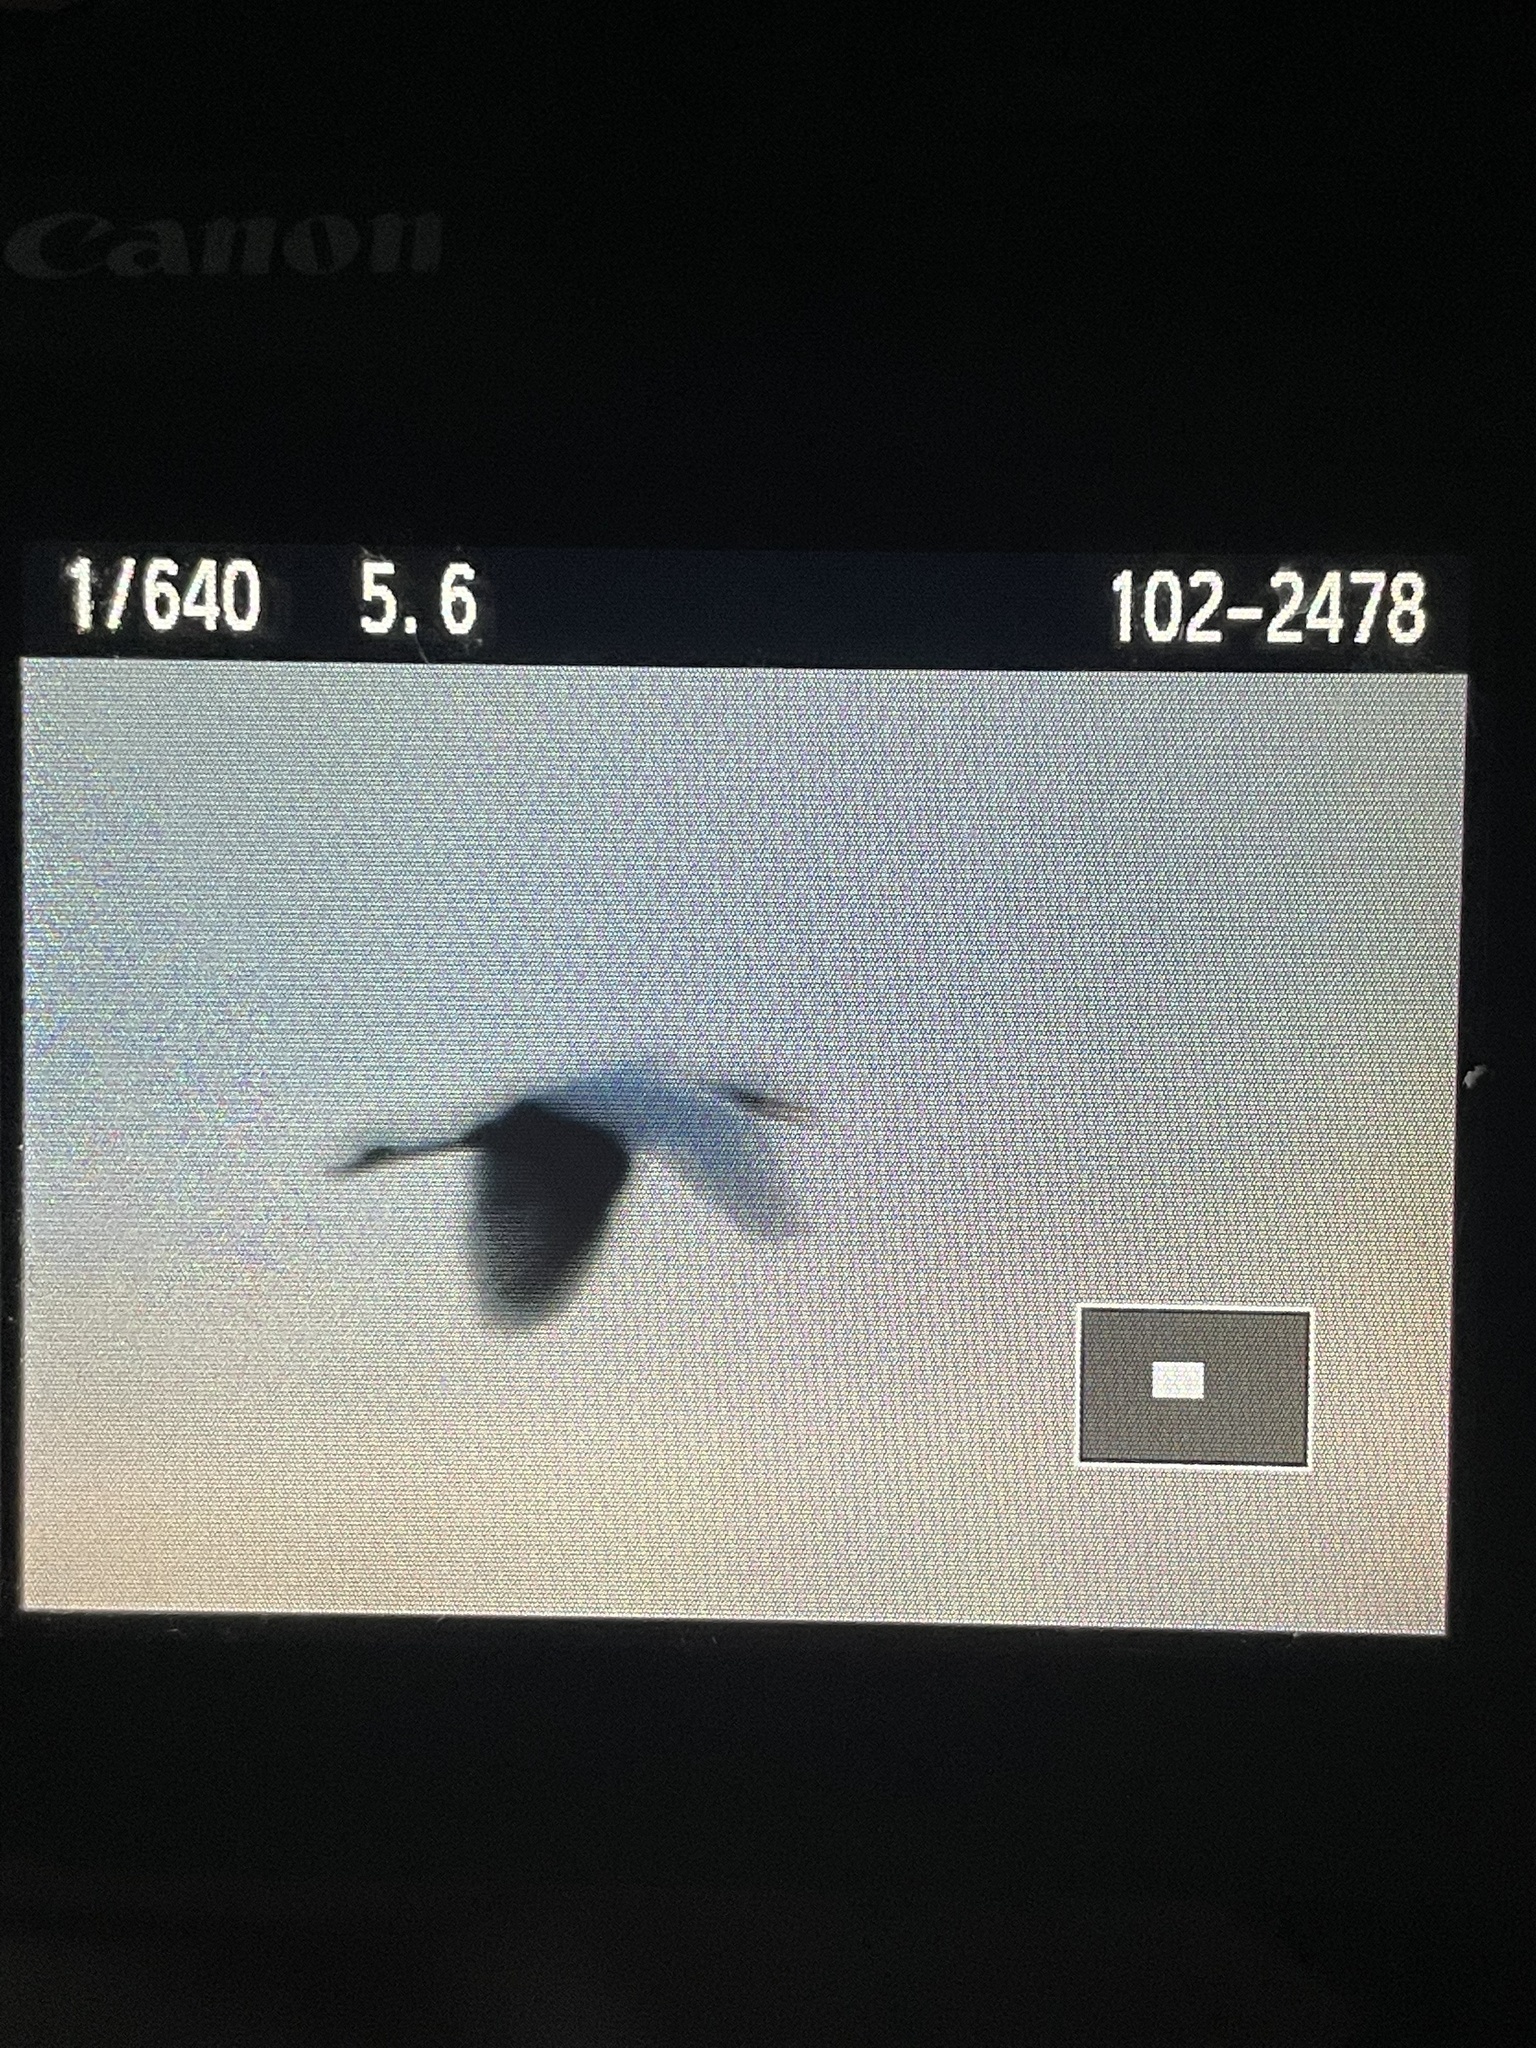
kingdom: Animalia
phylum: Chordata
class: Aves
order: Pelecaniformes
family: Ardeidae
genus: Ardea
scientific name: Ardea alba
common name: Great egret
